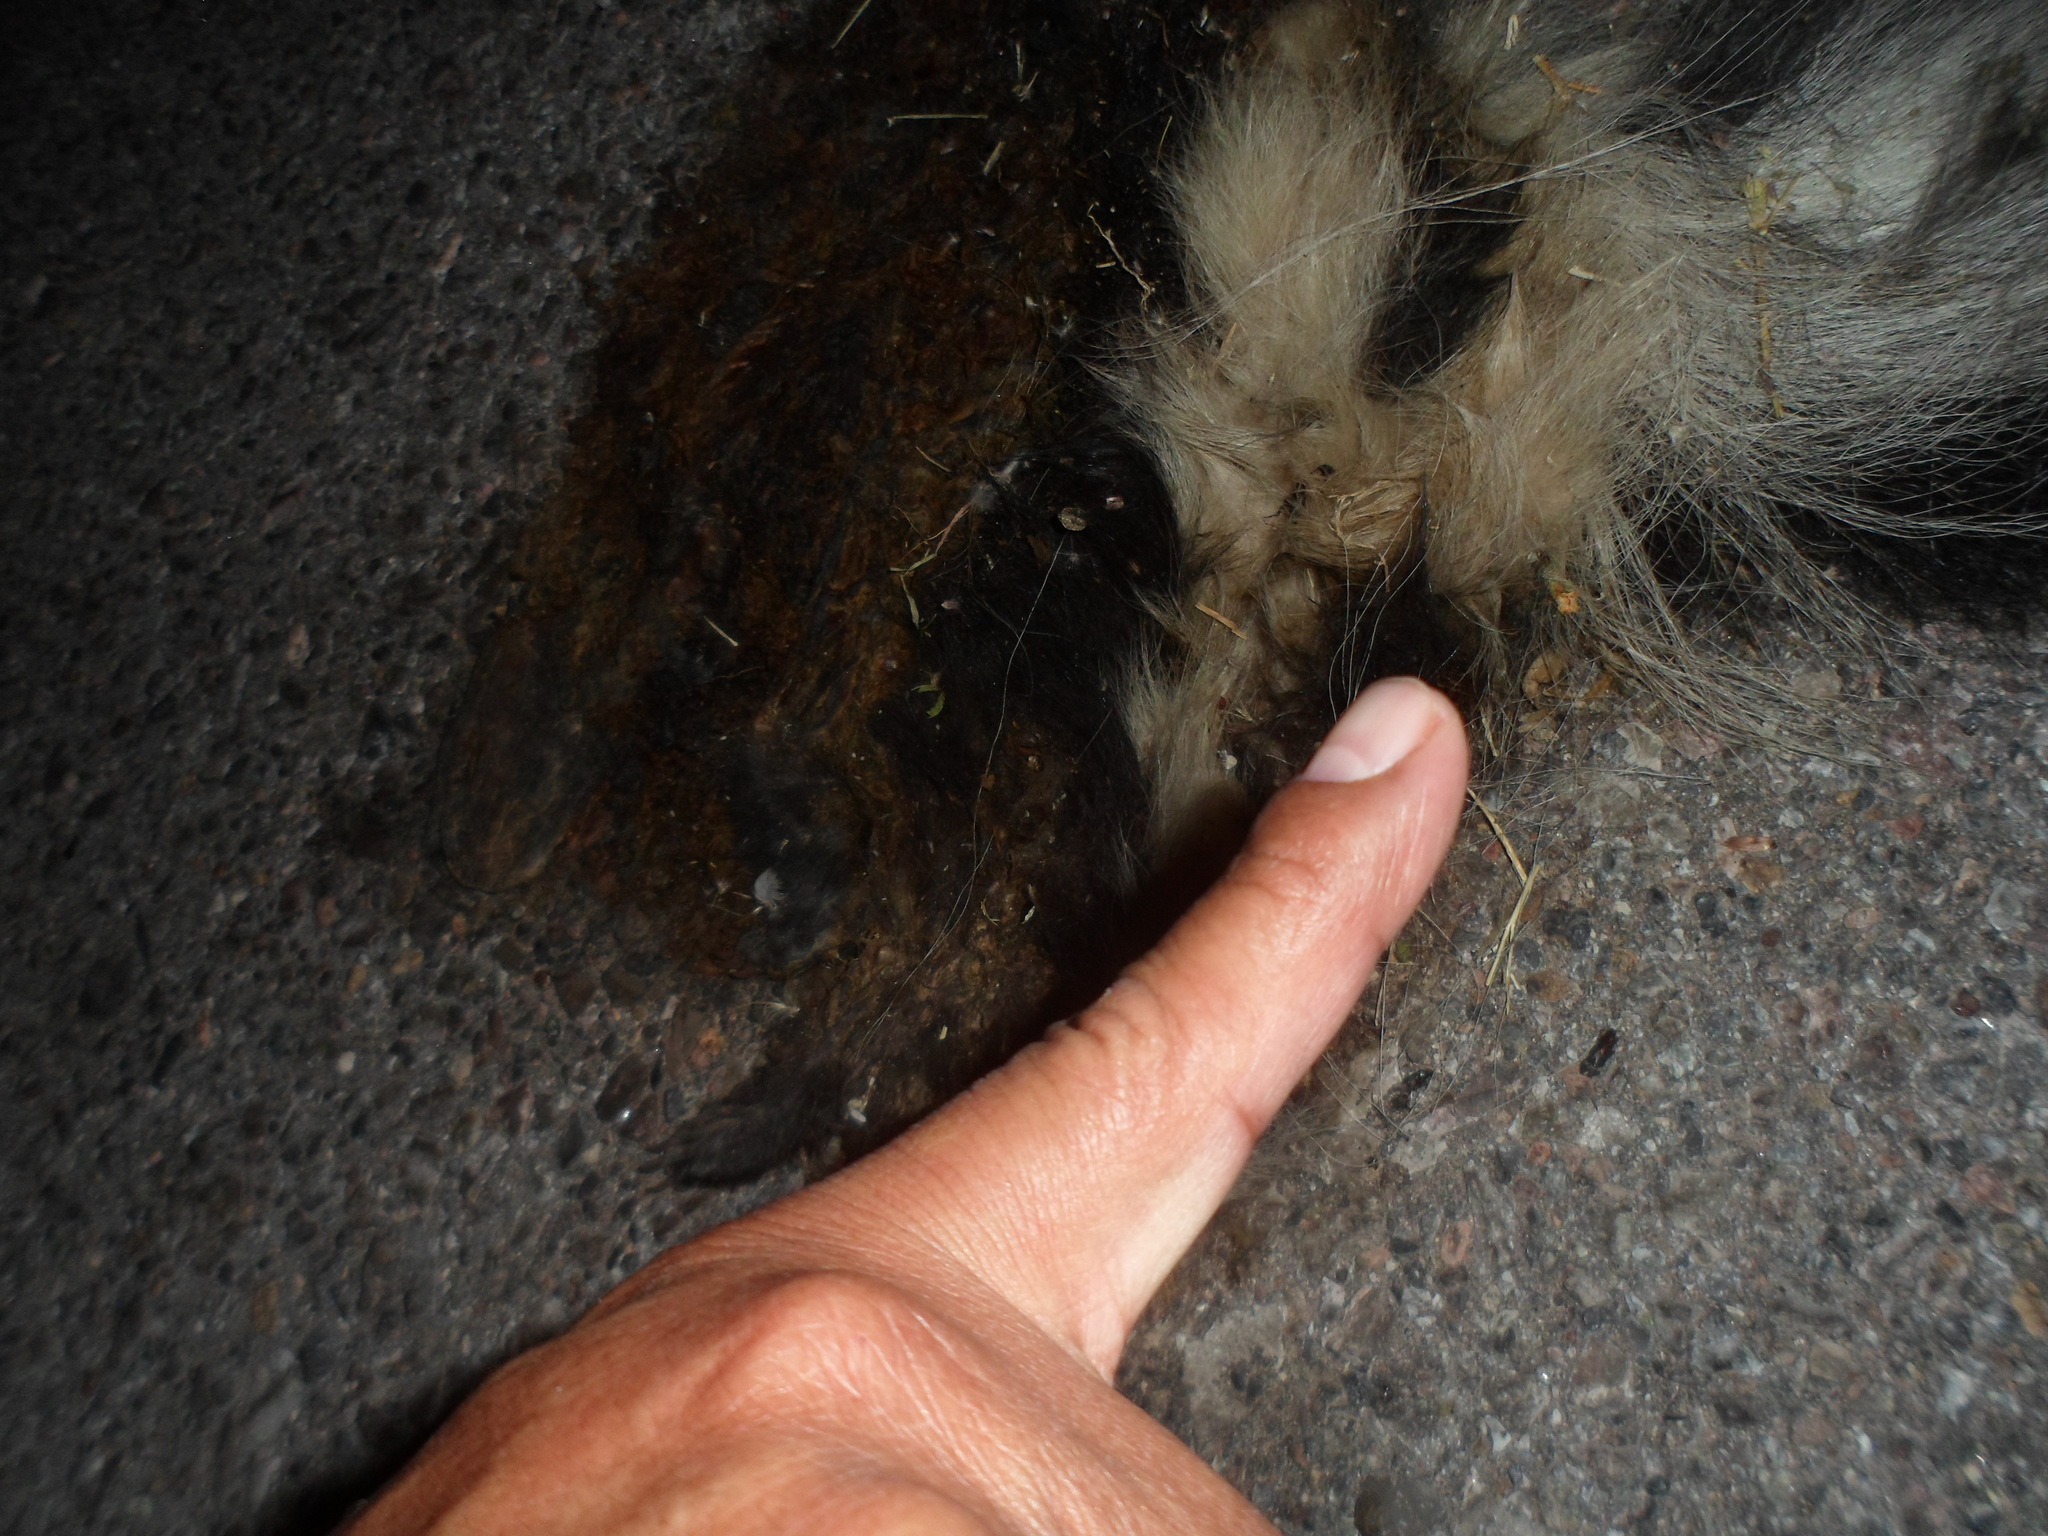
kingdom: Animalia
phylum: Chordata
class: Mammalia
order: Carnivora
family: Mephitidae
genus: Mephitis
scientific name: Mephitis mephitis
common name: Striped skunk
